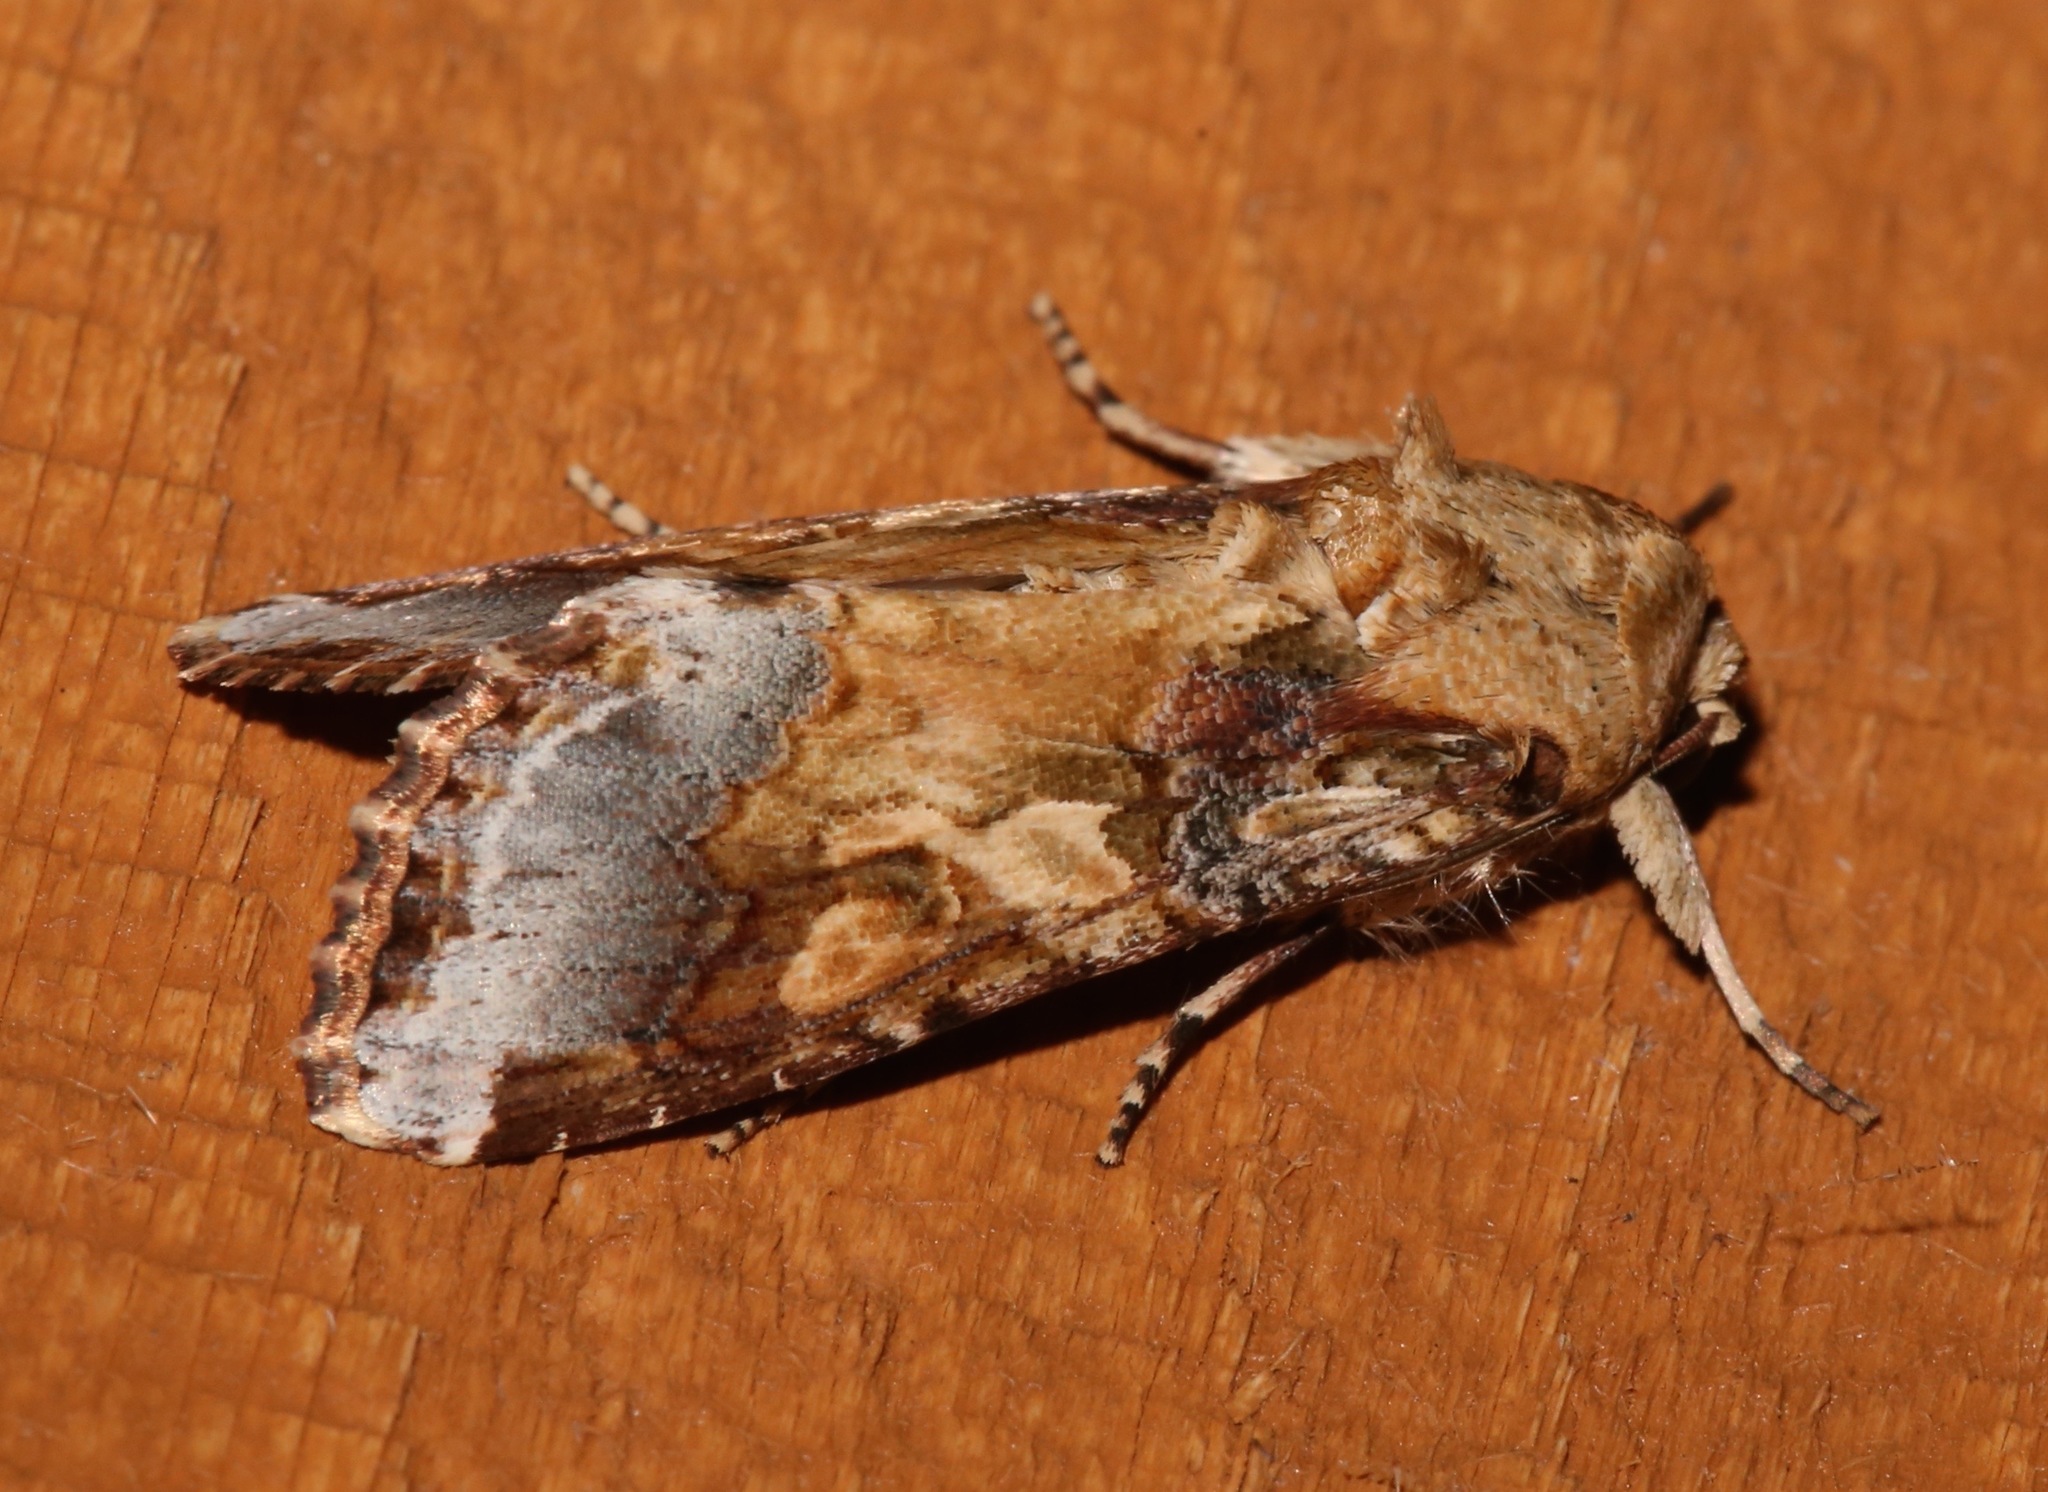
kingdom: Animalia
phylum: Arthropoda
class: Insecta
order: Lepidoptera
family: Noctuidae
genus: Spodoptera
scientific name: Spodoptera latifascia
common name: Velvet armyworm moth
